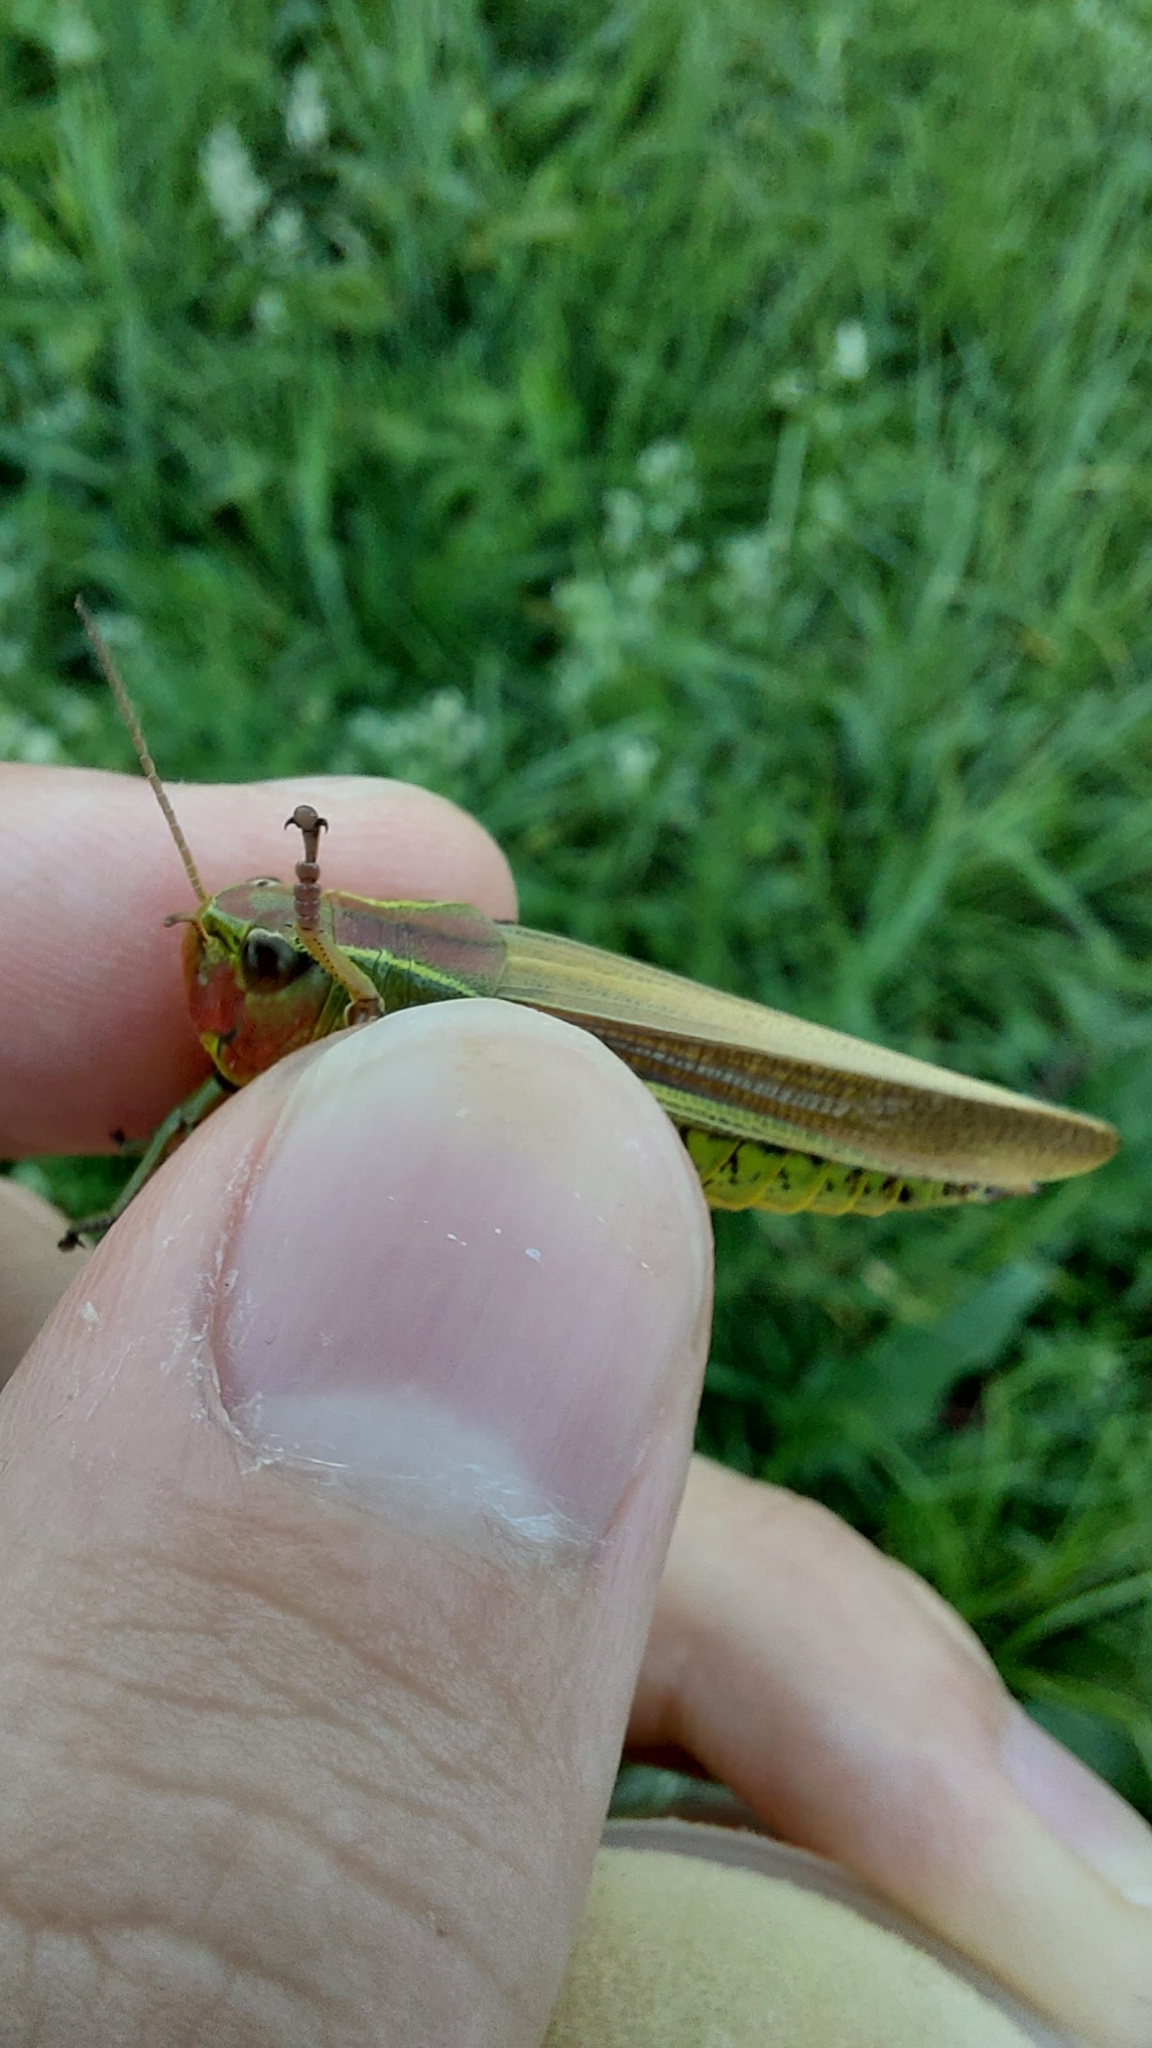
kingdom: Animalia
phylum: Arthropoda
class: Insecta
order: Orthoptera
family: Acrididae
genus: Stethophyma
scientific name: Stethophyma grossum
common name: Large marsh grasshopper
